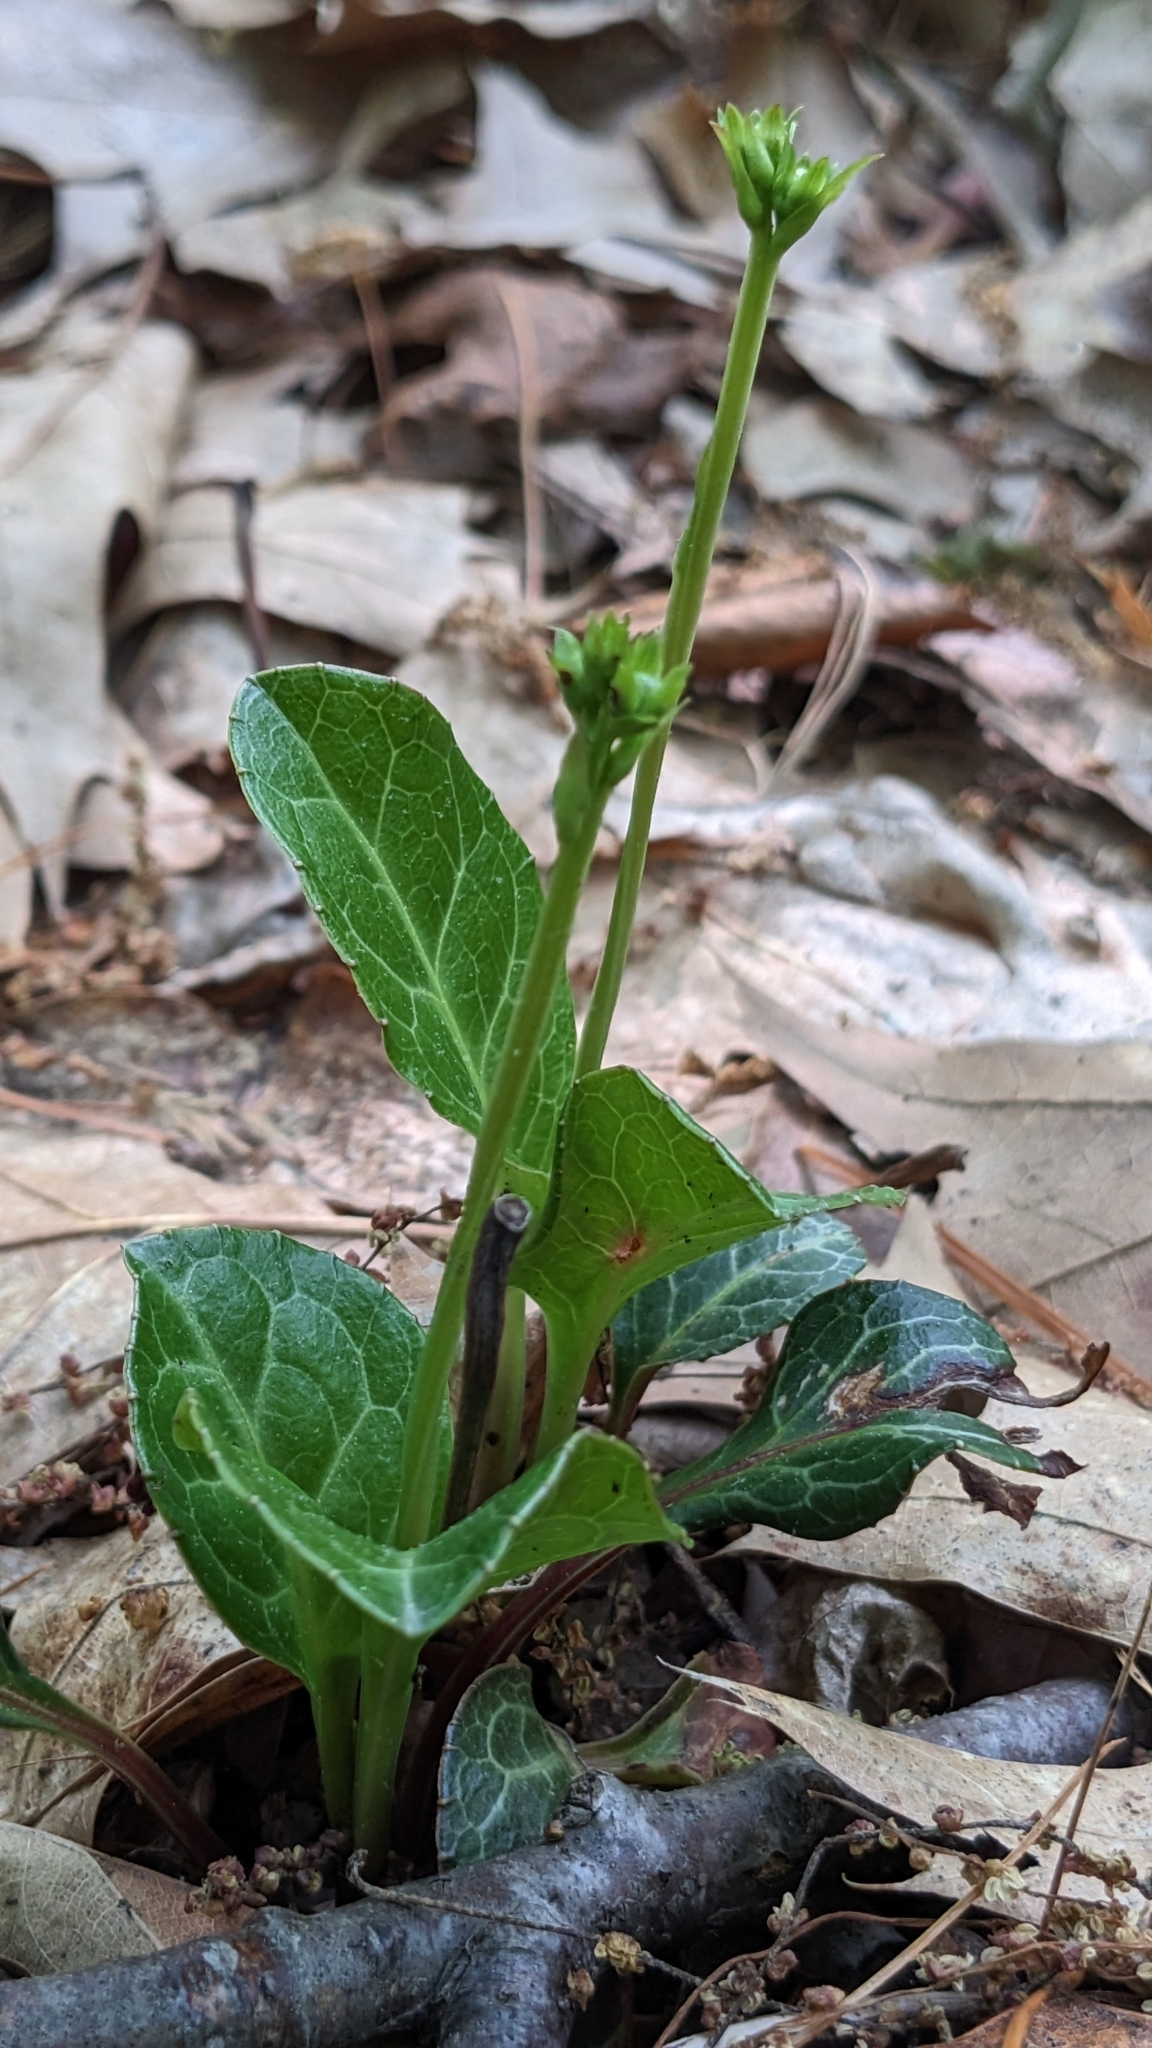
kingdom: Plantae
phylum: Tracheophyta
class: Magnoliopsida
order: Ericales
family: Ericaceae
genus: Pyrola
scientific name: Pyrola americana
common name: American wintergreen
